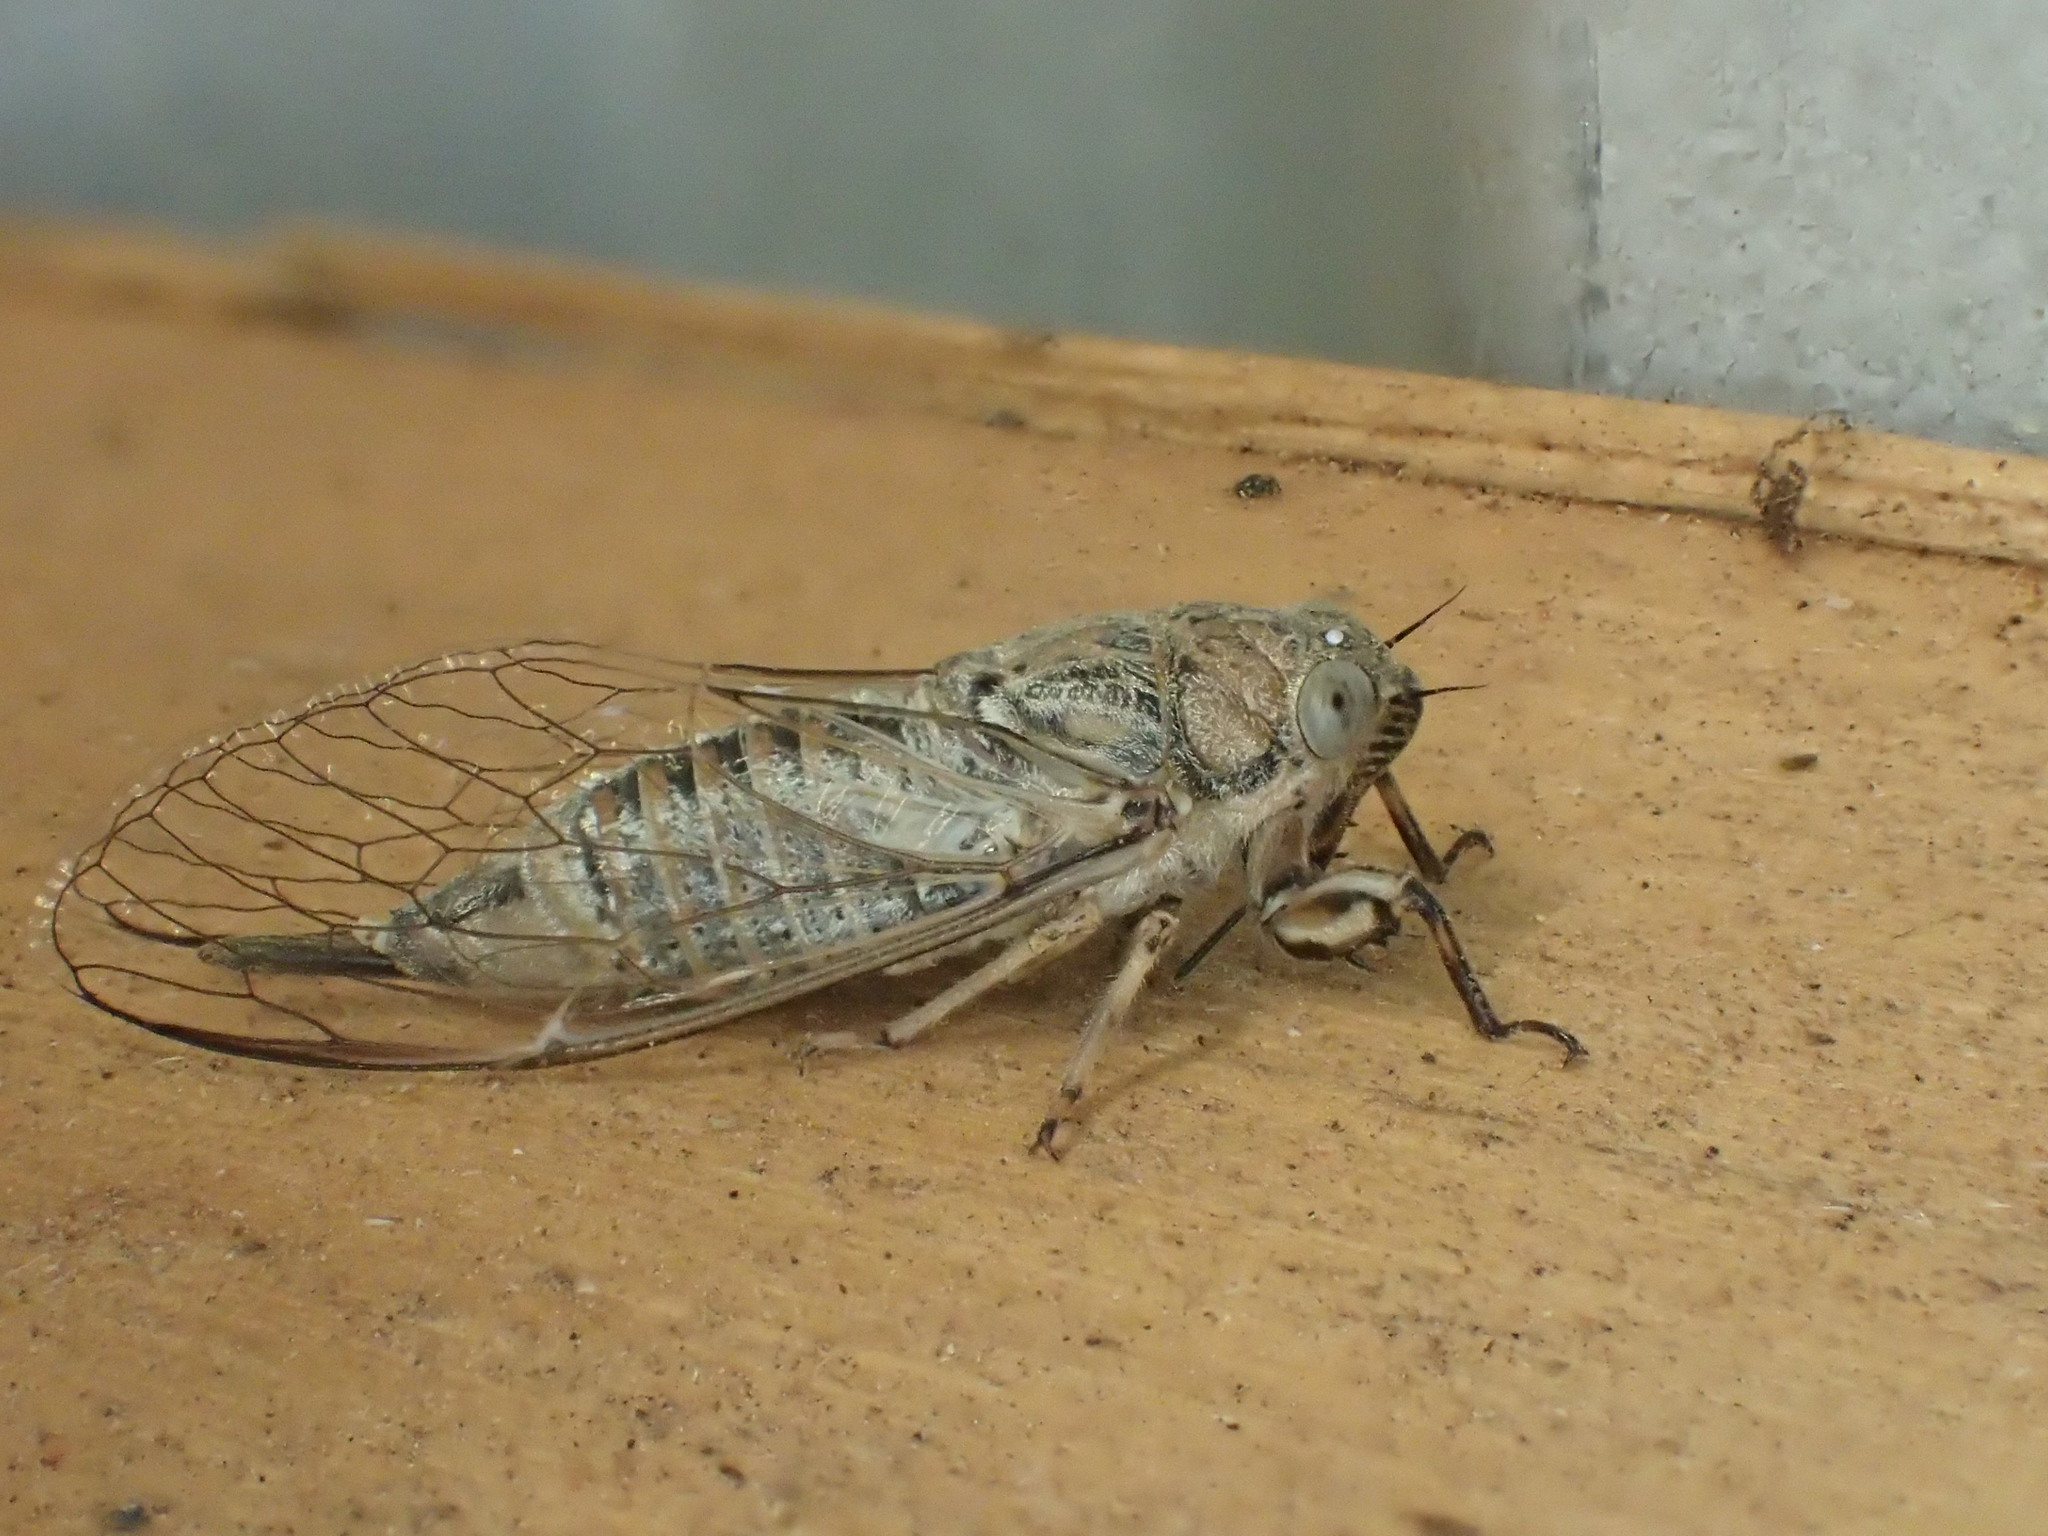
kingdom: Animalia
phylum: Arthropoda
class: Insecta
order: Hemiptera
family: Cicadidae
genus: Myopsalta
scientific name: Myopsalta xerograsidia
